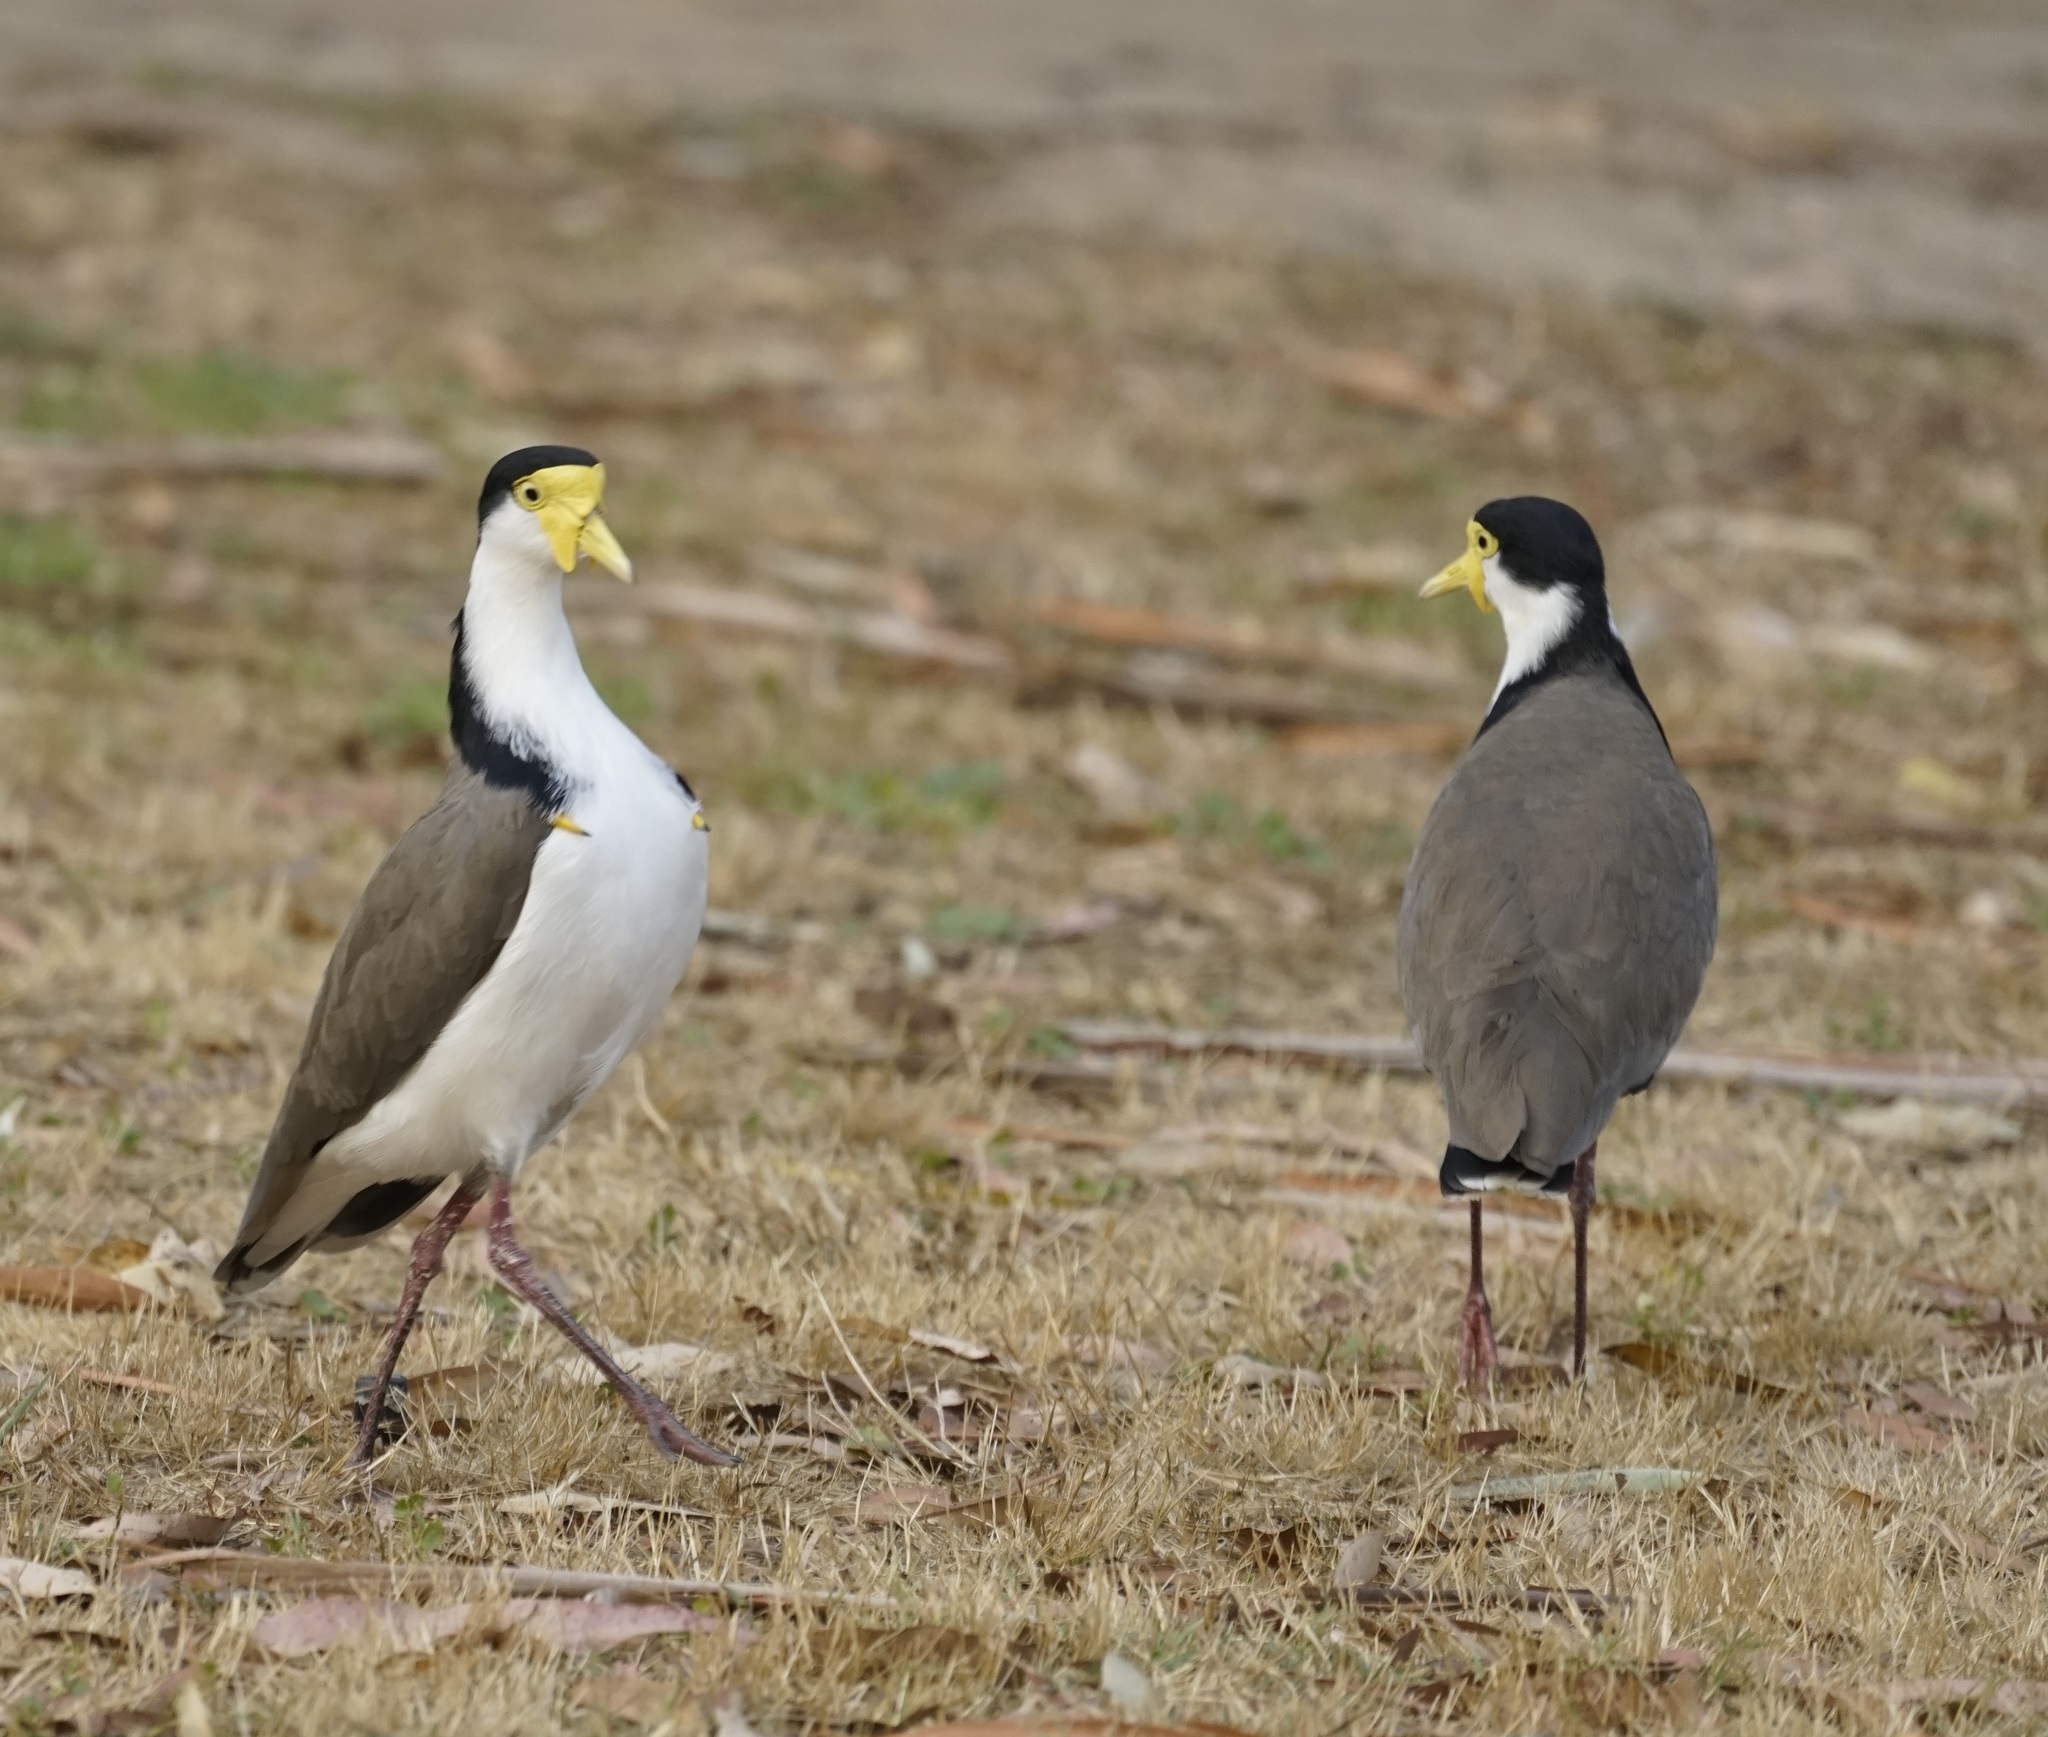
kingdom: Animalia
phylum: Chordata
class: Aves
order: Charadriiformes
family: Charadriidae
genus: Vanellus
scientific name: Vanellus miles
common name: Masked lapwing
